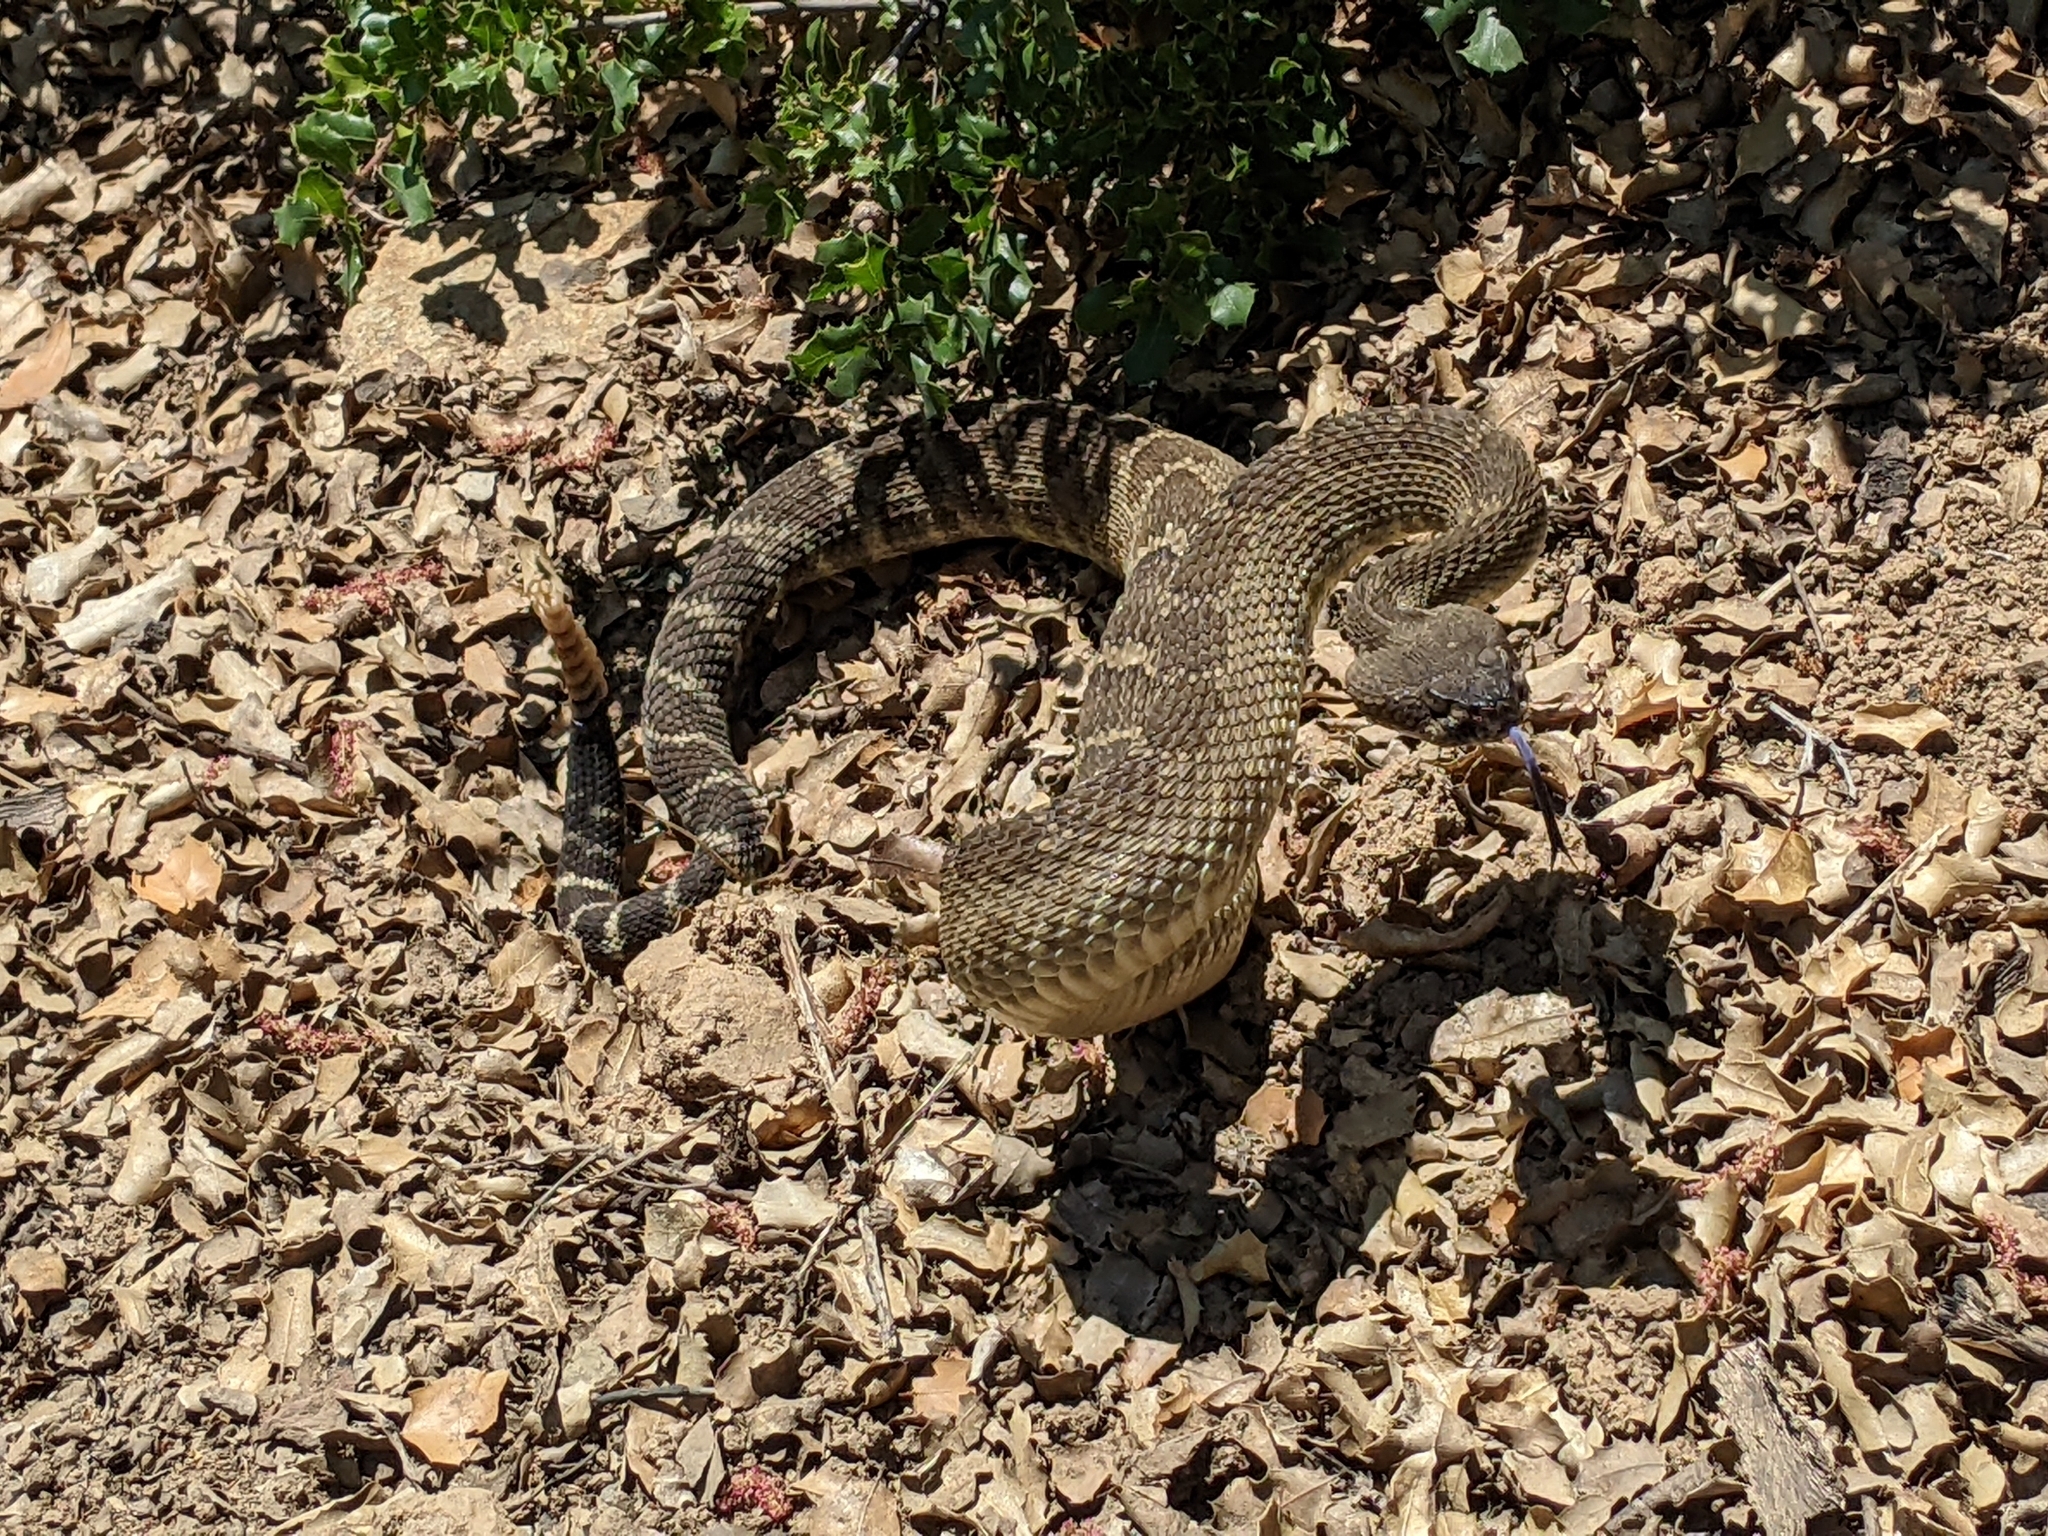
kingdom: Animalia
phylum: Chordata
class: Squamata
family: Viperidae
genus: Crotalus
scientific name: Crotalus oreganus
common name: Abyssus
